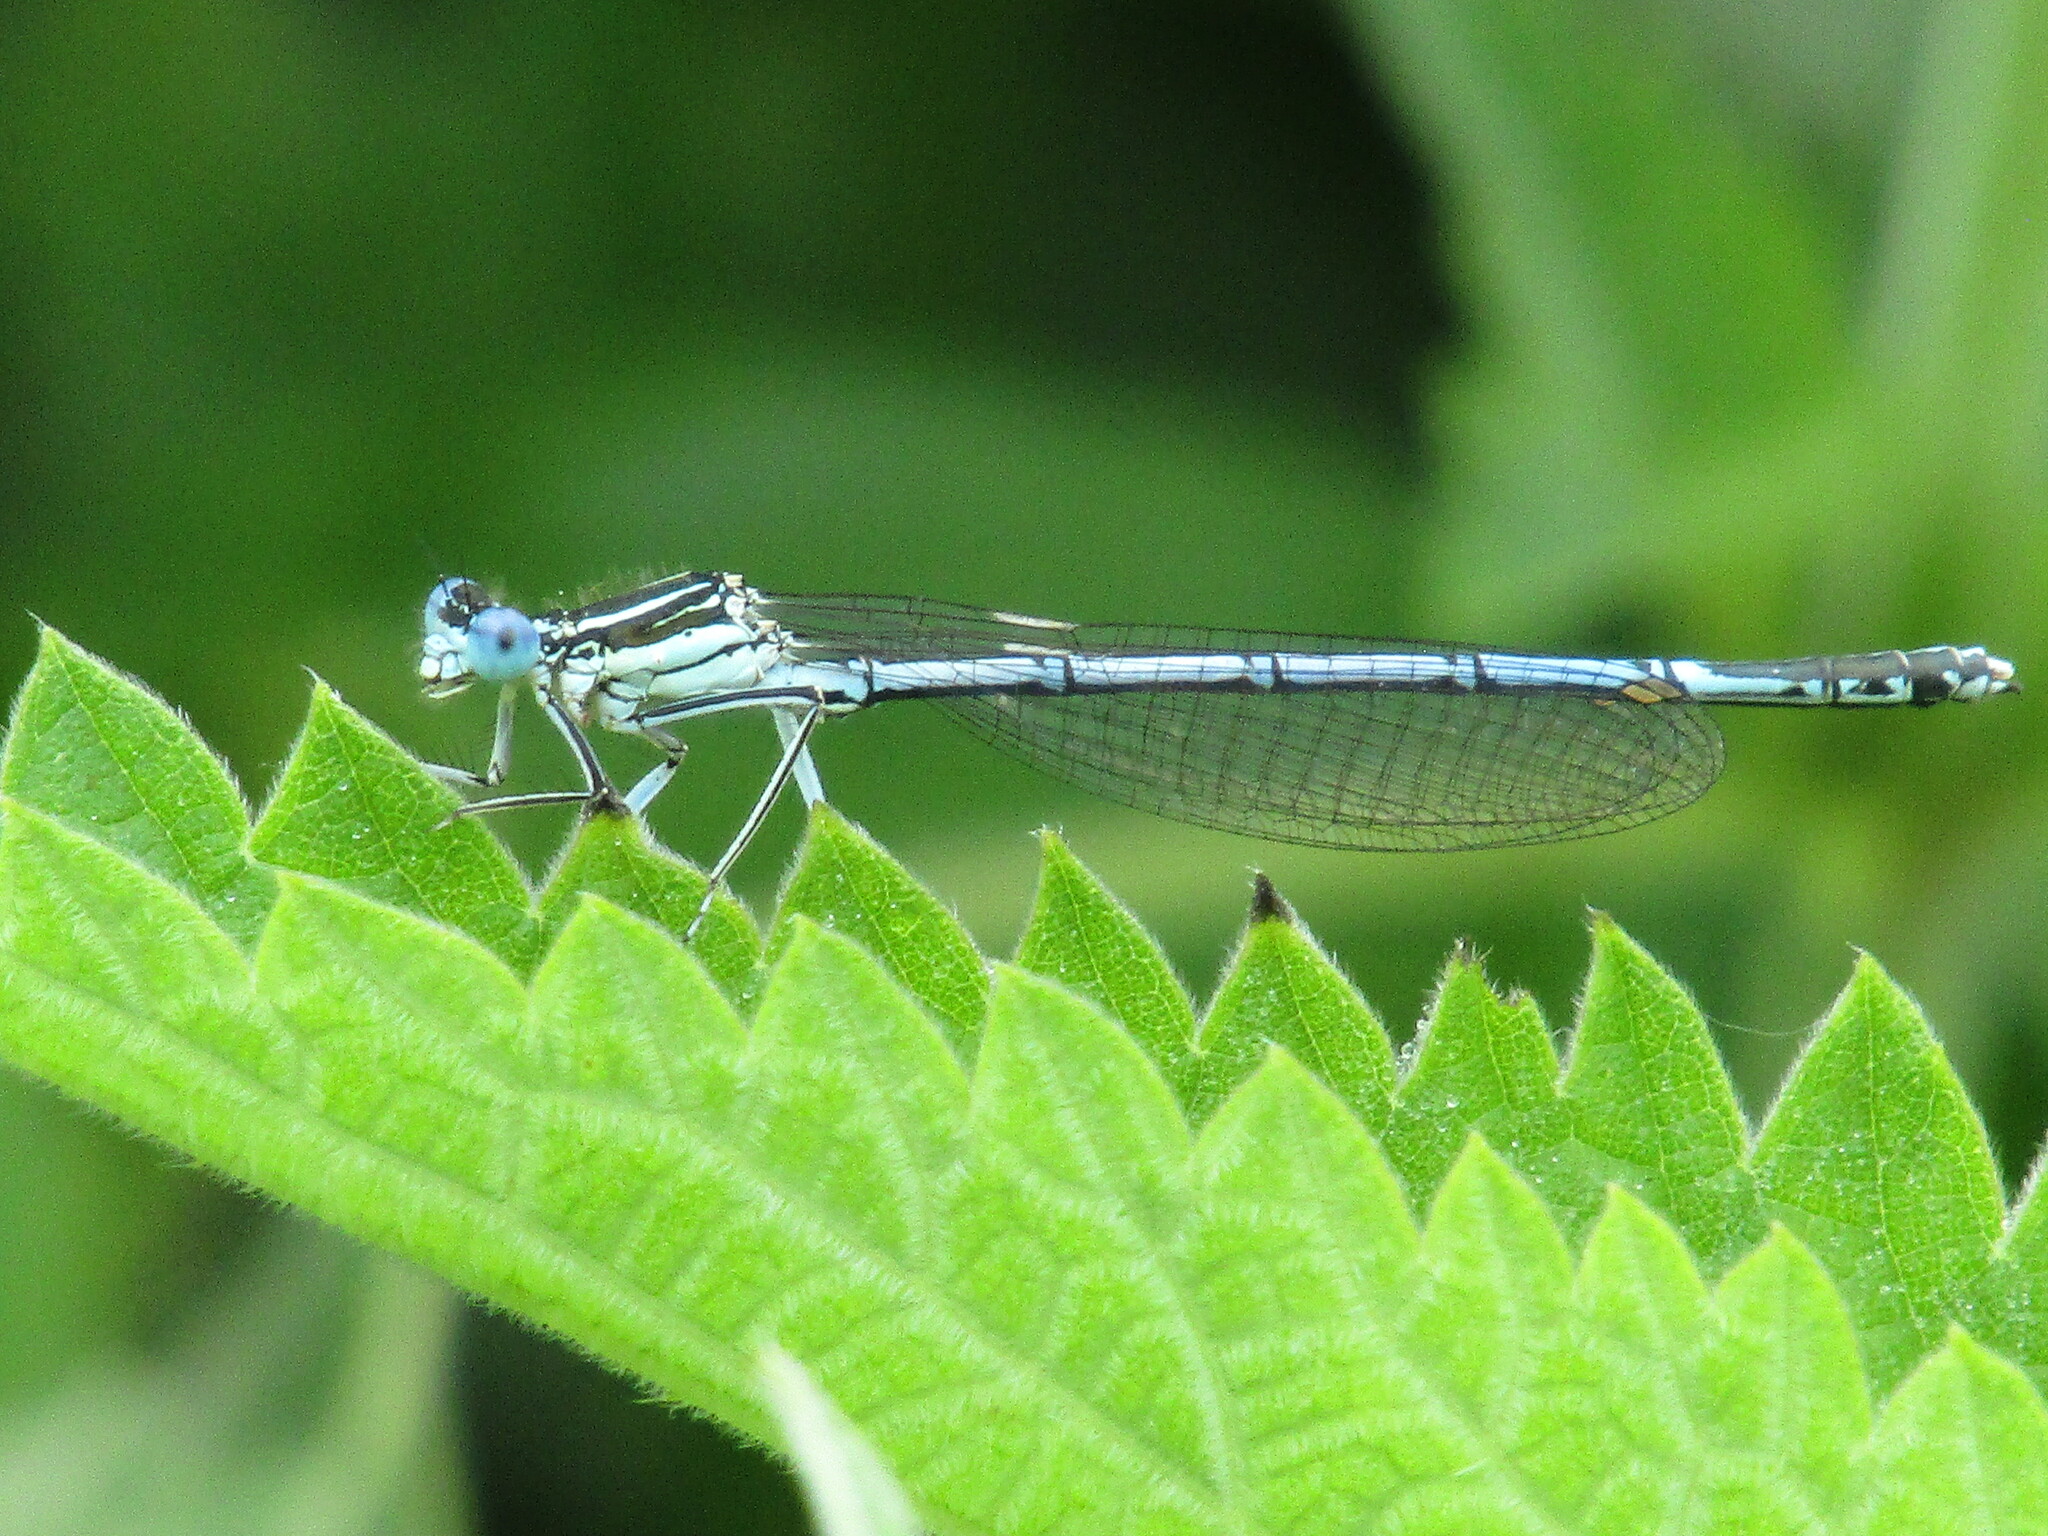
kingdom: Animalia
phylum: Arthropoda
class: Insecta
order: Odonata
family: Platycnemididae
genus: Platycnemis
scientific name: Platycnemis pennipes
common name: White-legged damselfly
